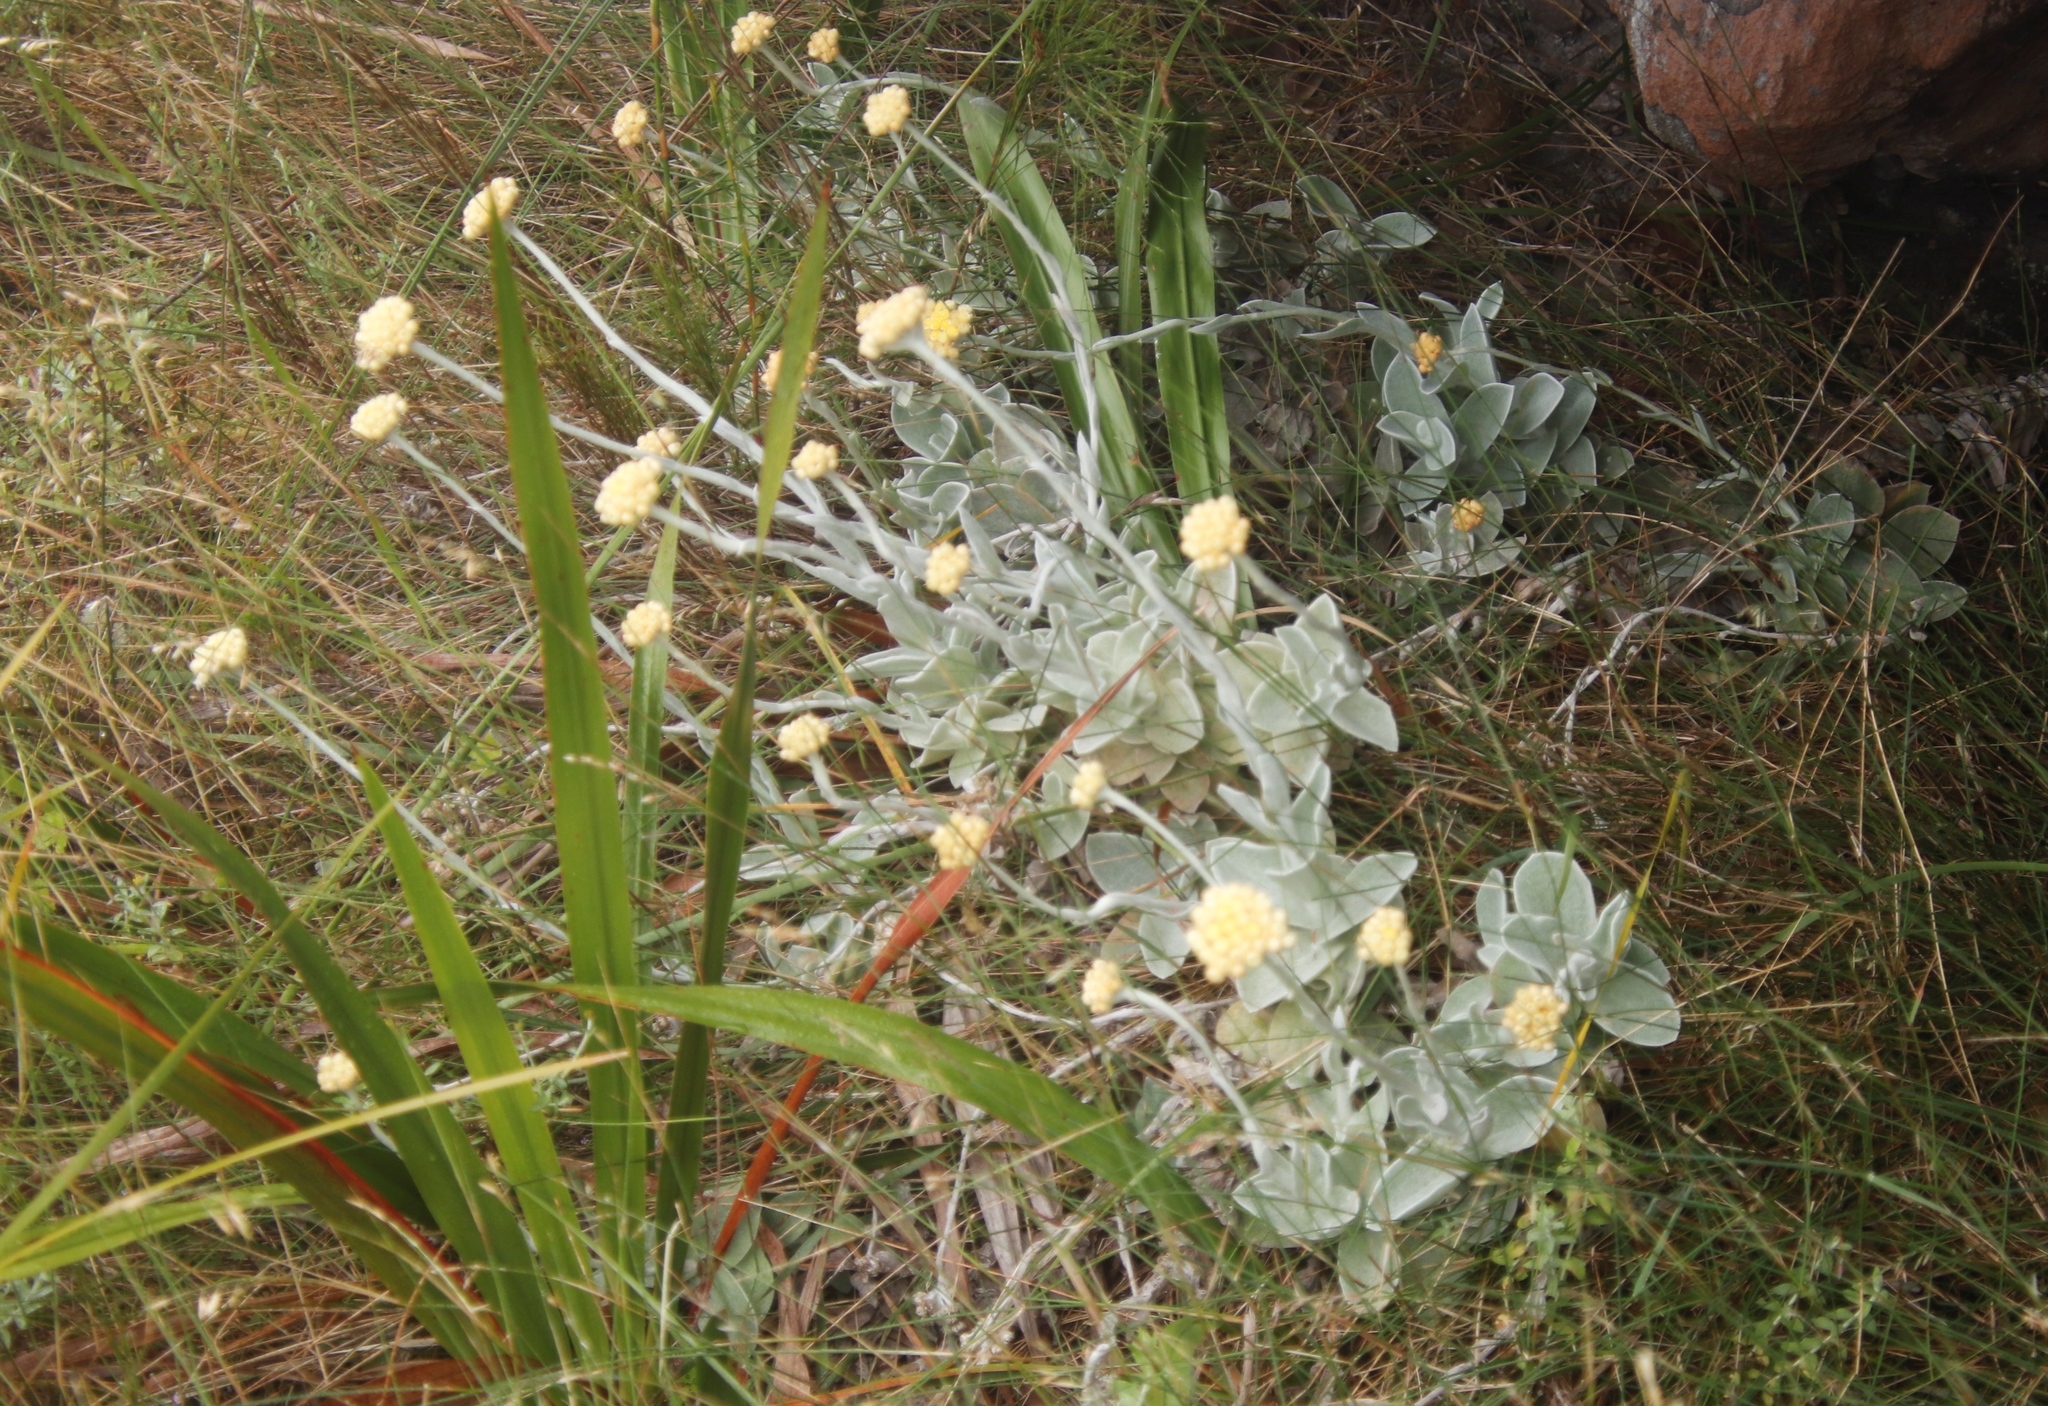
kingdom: Plantae
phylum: Tracheophyta
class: Magnoliopsida
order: Asterales
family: Asteraceae
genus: Helichrysum
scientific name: Helichrysum grandiflorum
